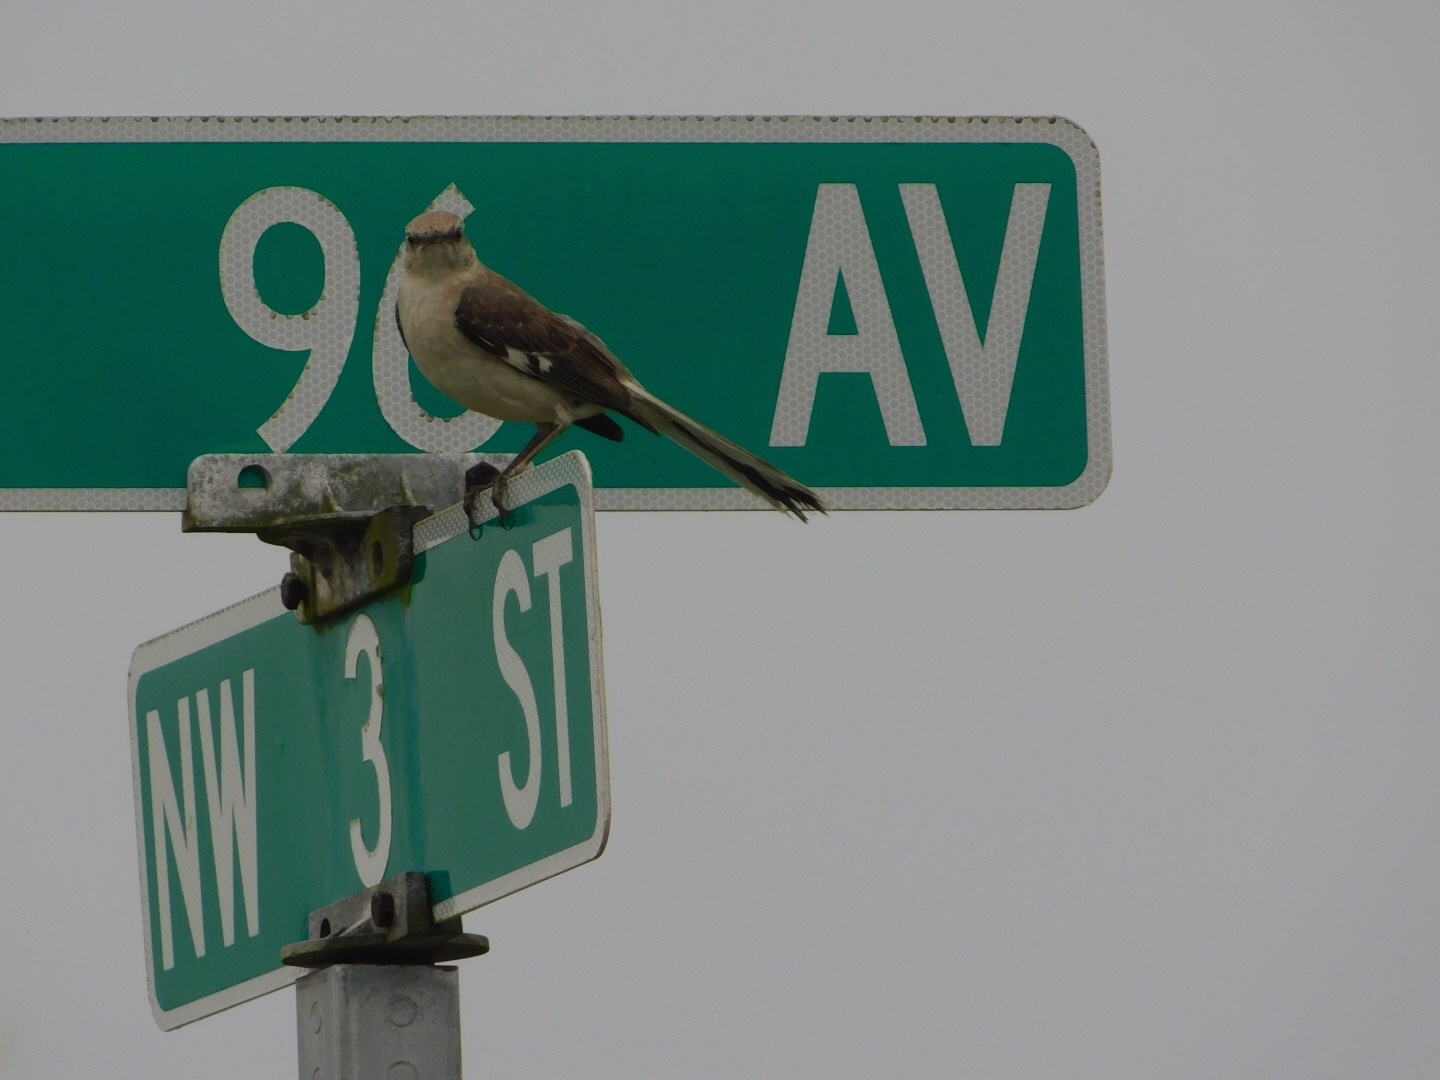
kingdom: Animalia
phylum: Chordata
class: Aves
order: Passeriformes
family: Mimidae
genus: Mimus
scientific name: Mimus polyglottos
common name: Northern mockingbird
